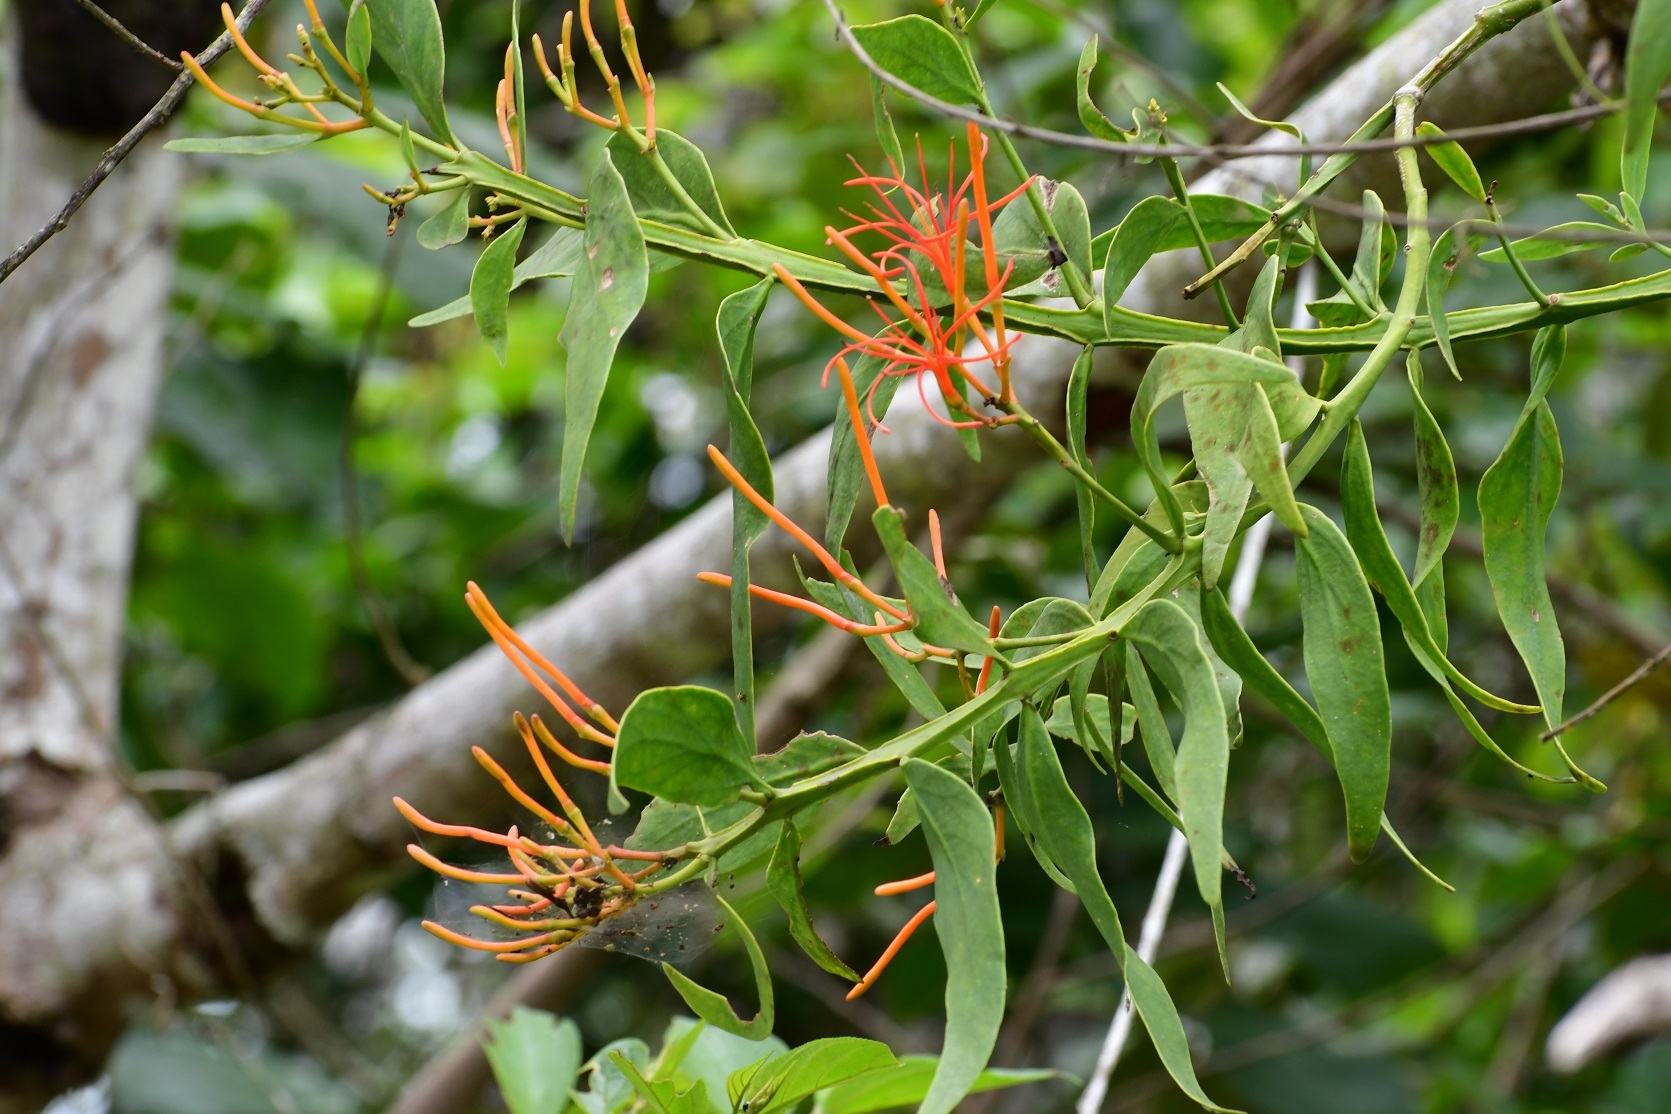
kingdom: Plantae
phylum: Tracheophyta
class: Magnoliopsida
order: Santalales
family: Loranthaceae
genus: Psittacanthus
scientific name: Psittacanthus calyculatus
